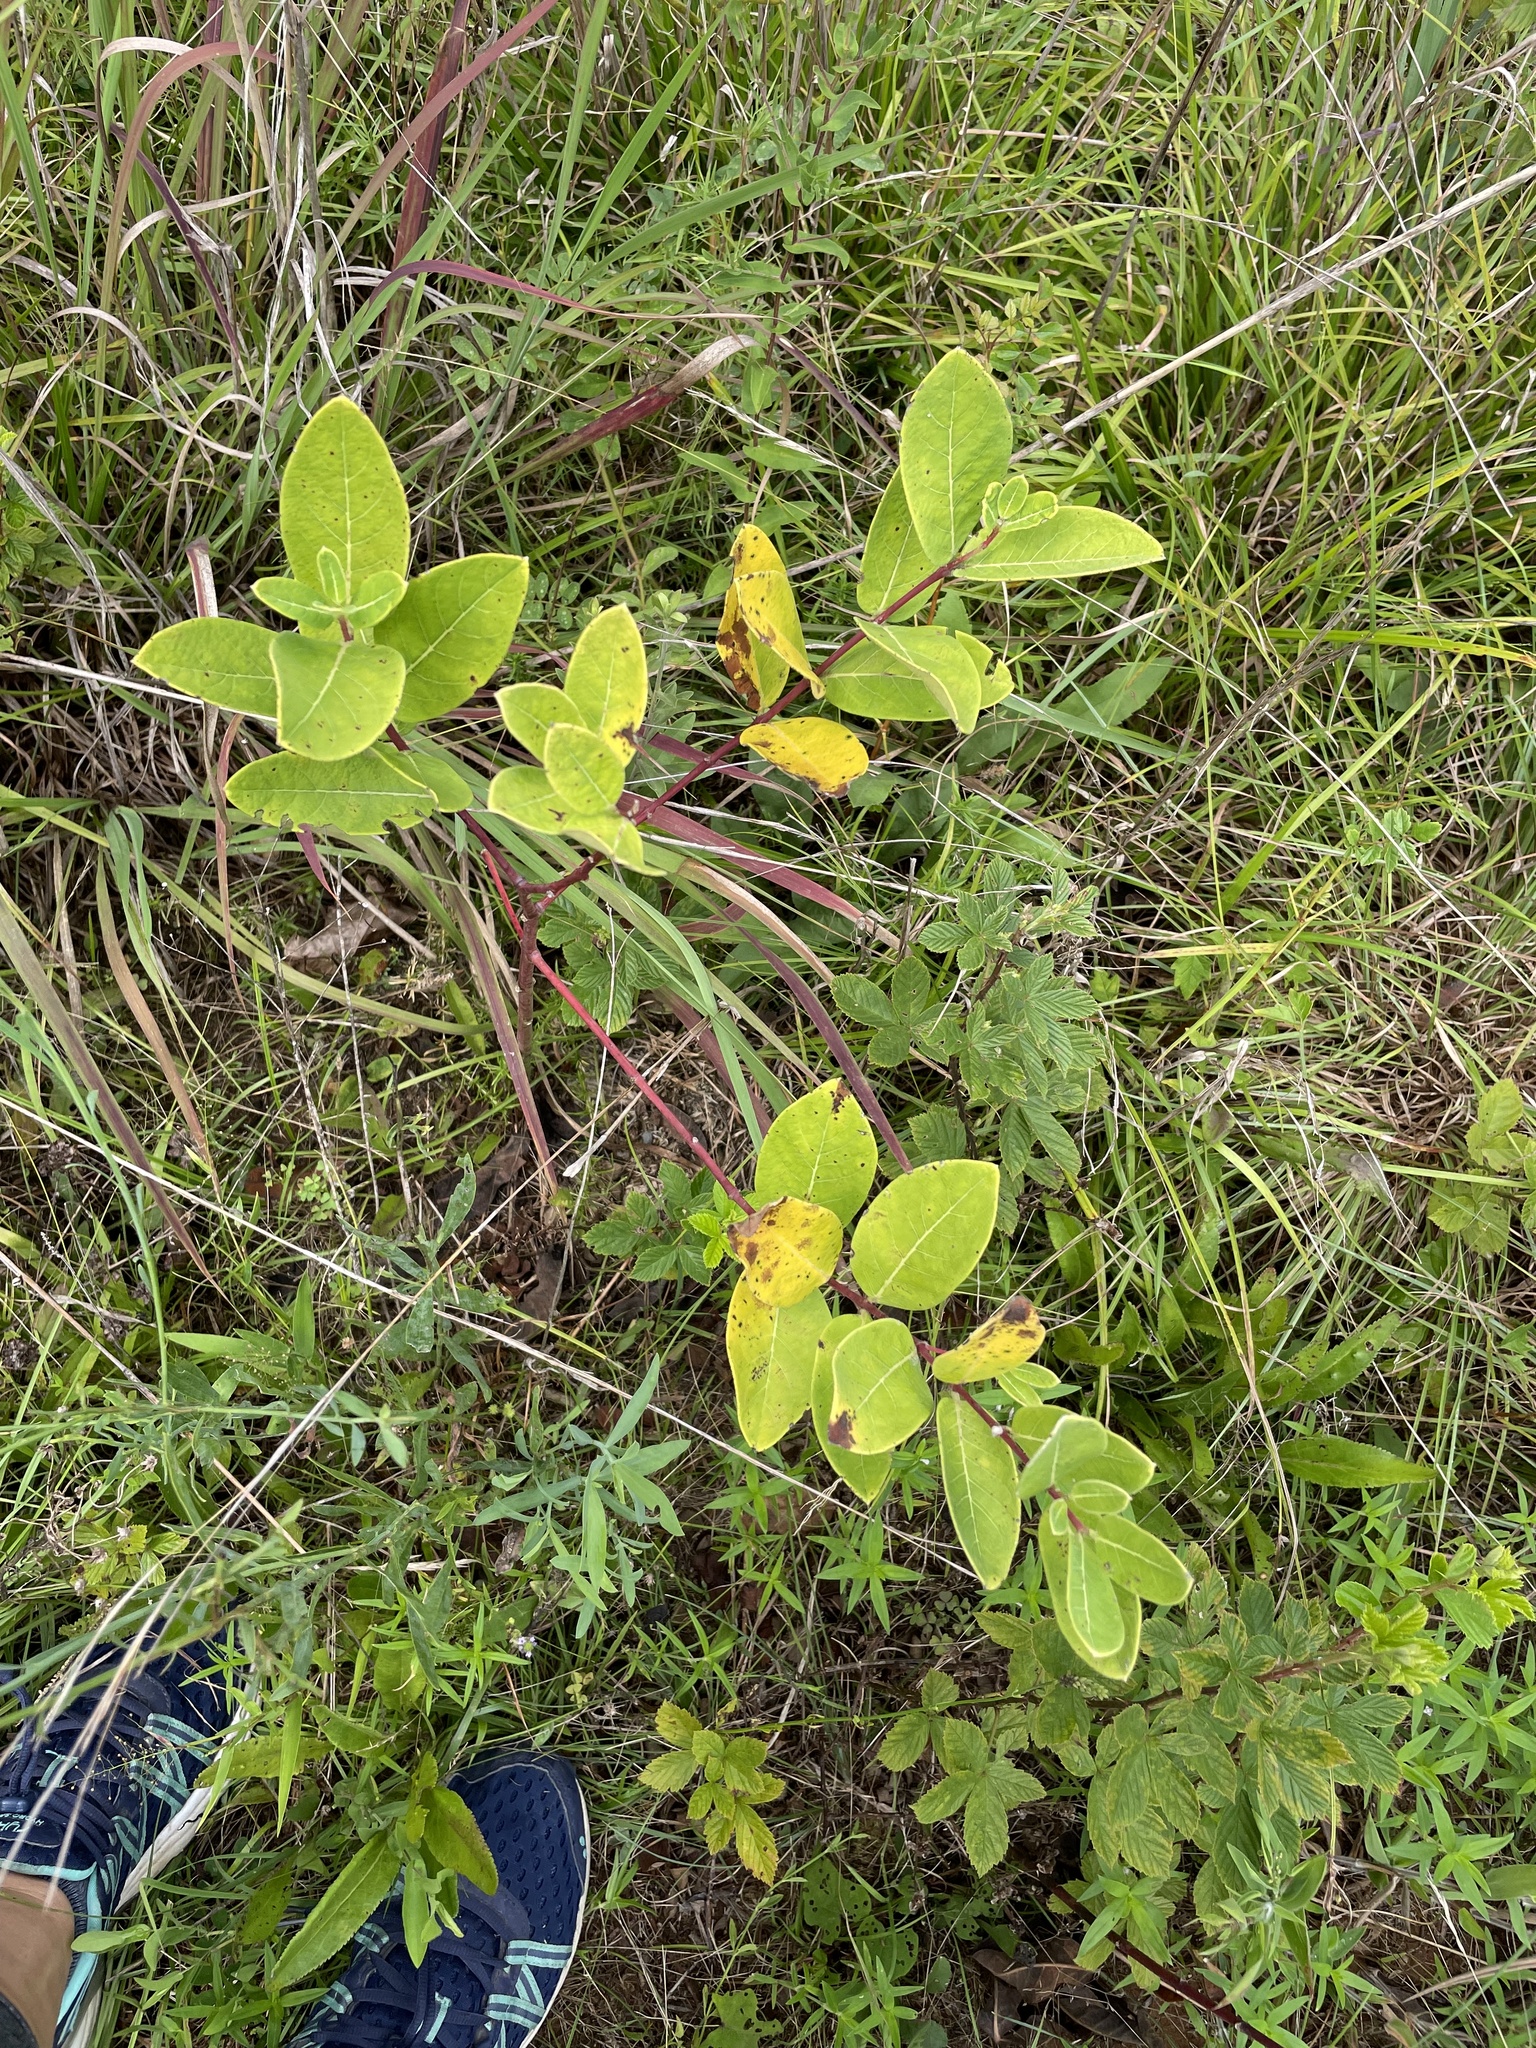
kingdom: Plantae
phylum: Tracheophyta
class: Magnoliopsida
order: Gentianales
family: Apocynaceae
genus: Apocynum
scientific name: Apocynum cannabinum
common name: Hemp dogbane
